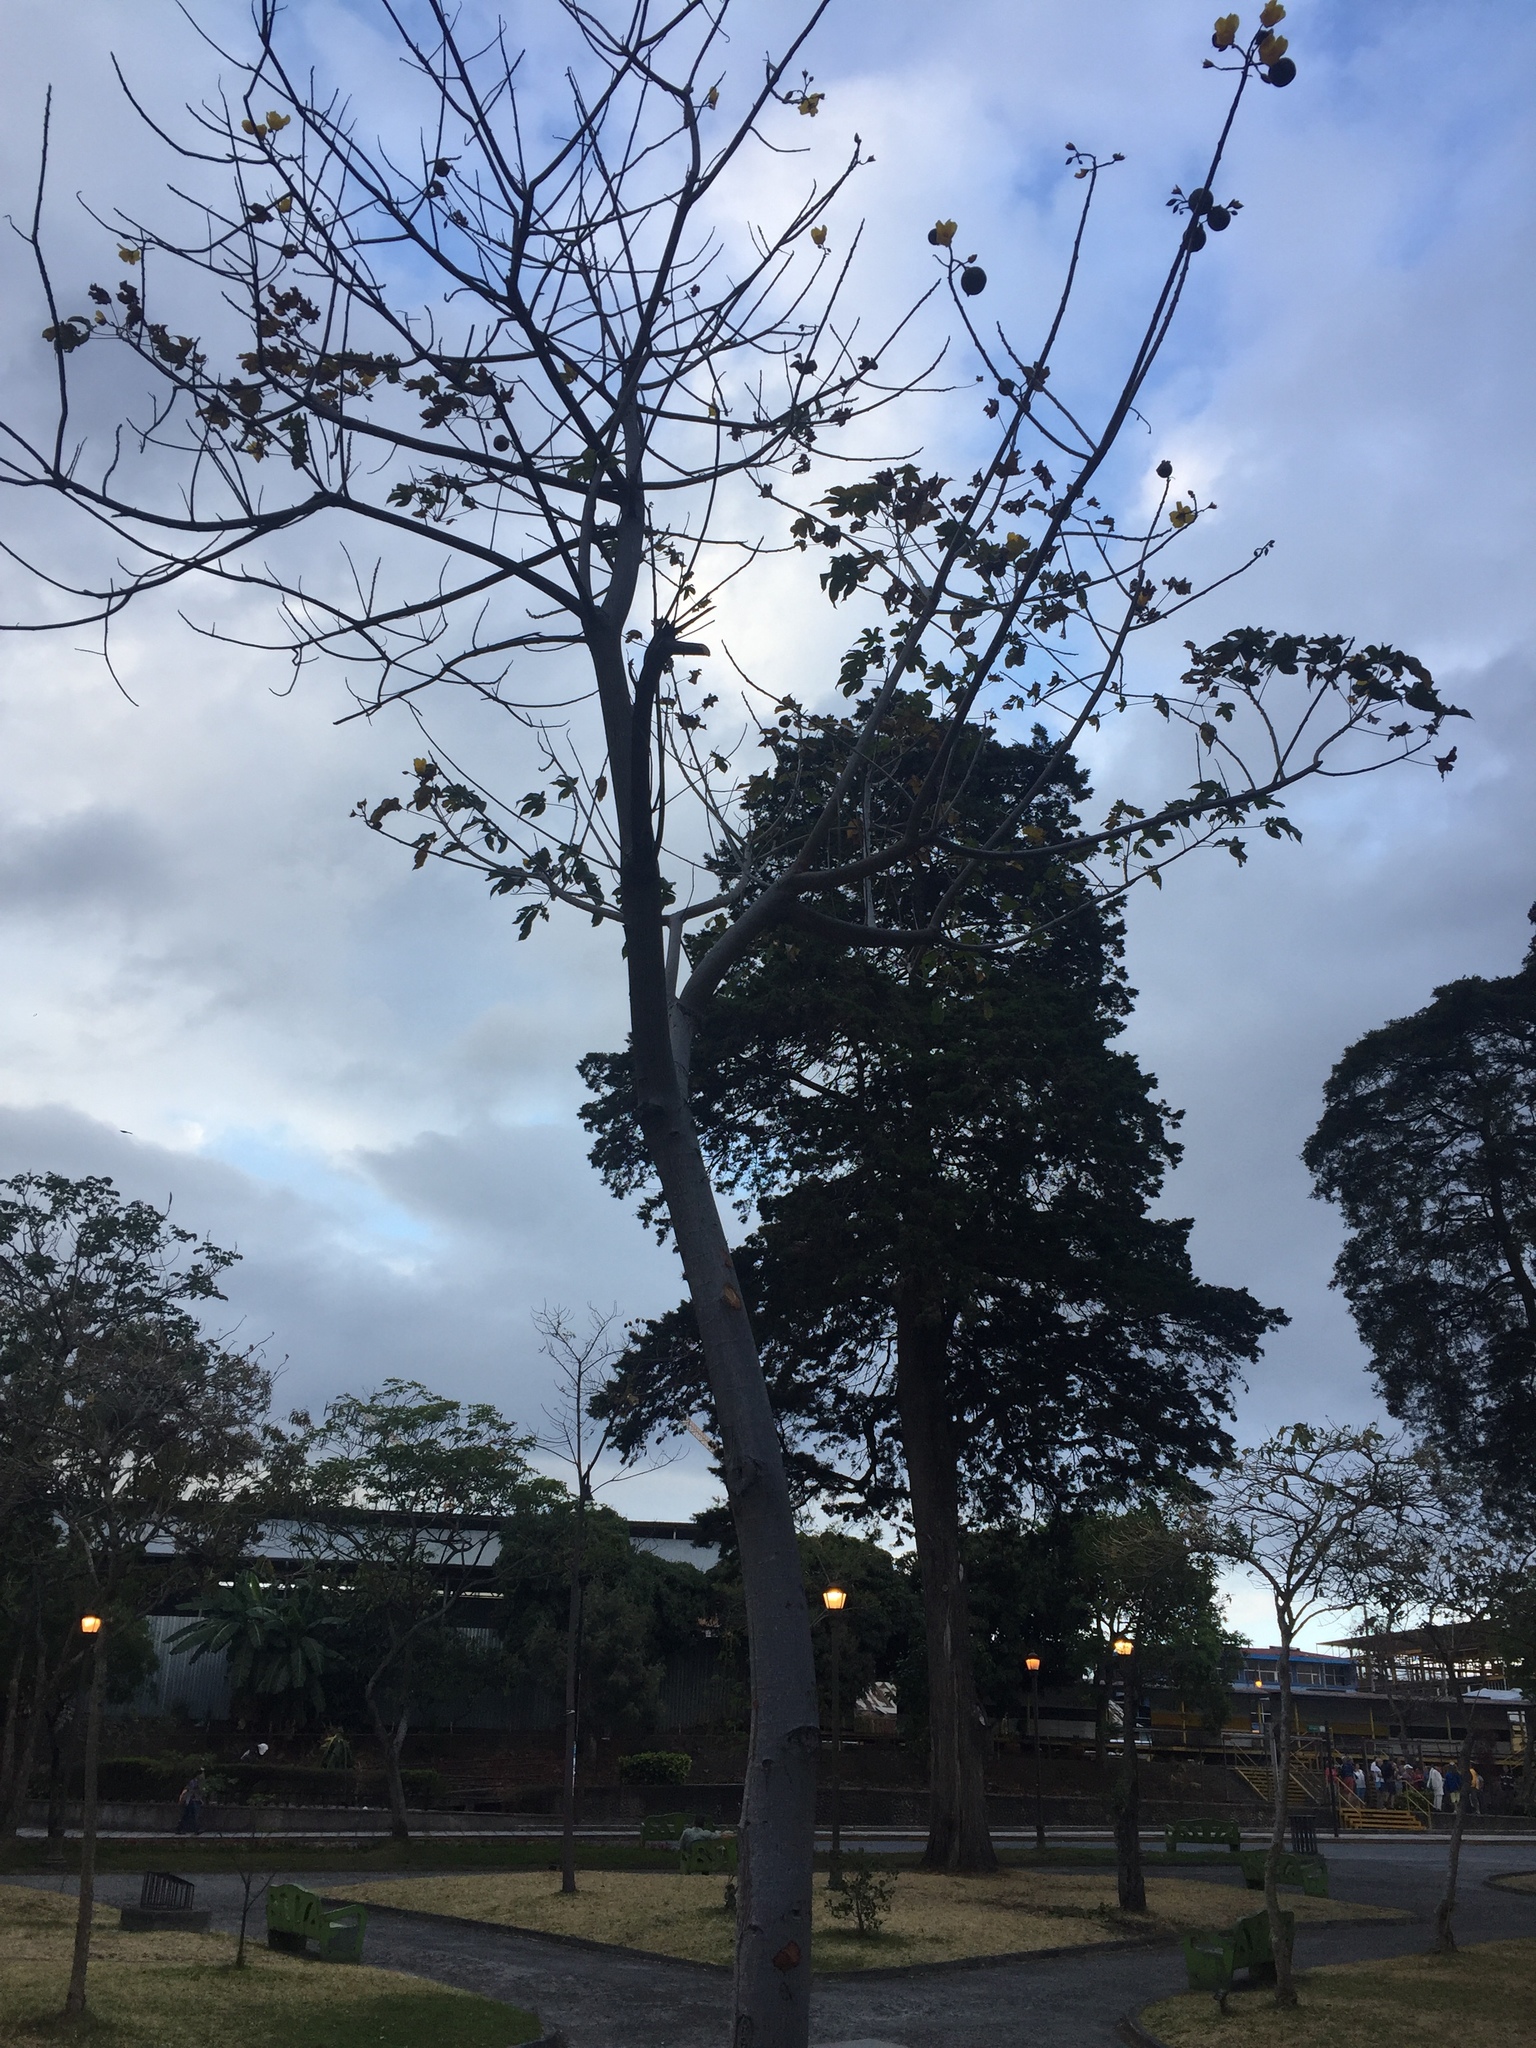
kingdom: Plantae
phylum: Tracheophyta
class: Magnoliopsida
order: Malvales
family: Cochlospermaceae
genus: Cochlospermum
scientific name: Cochlospermum vitifolium
